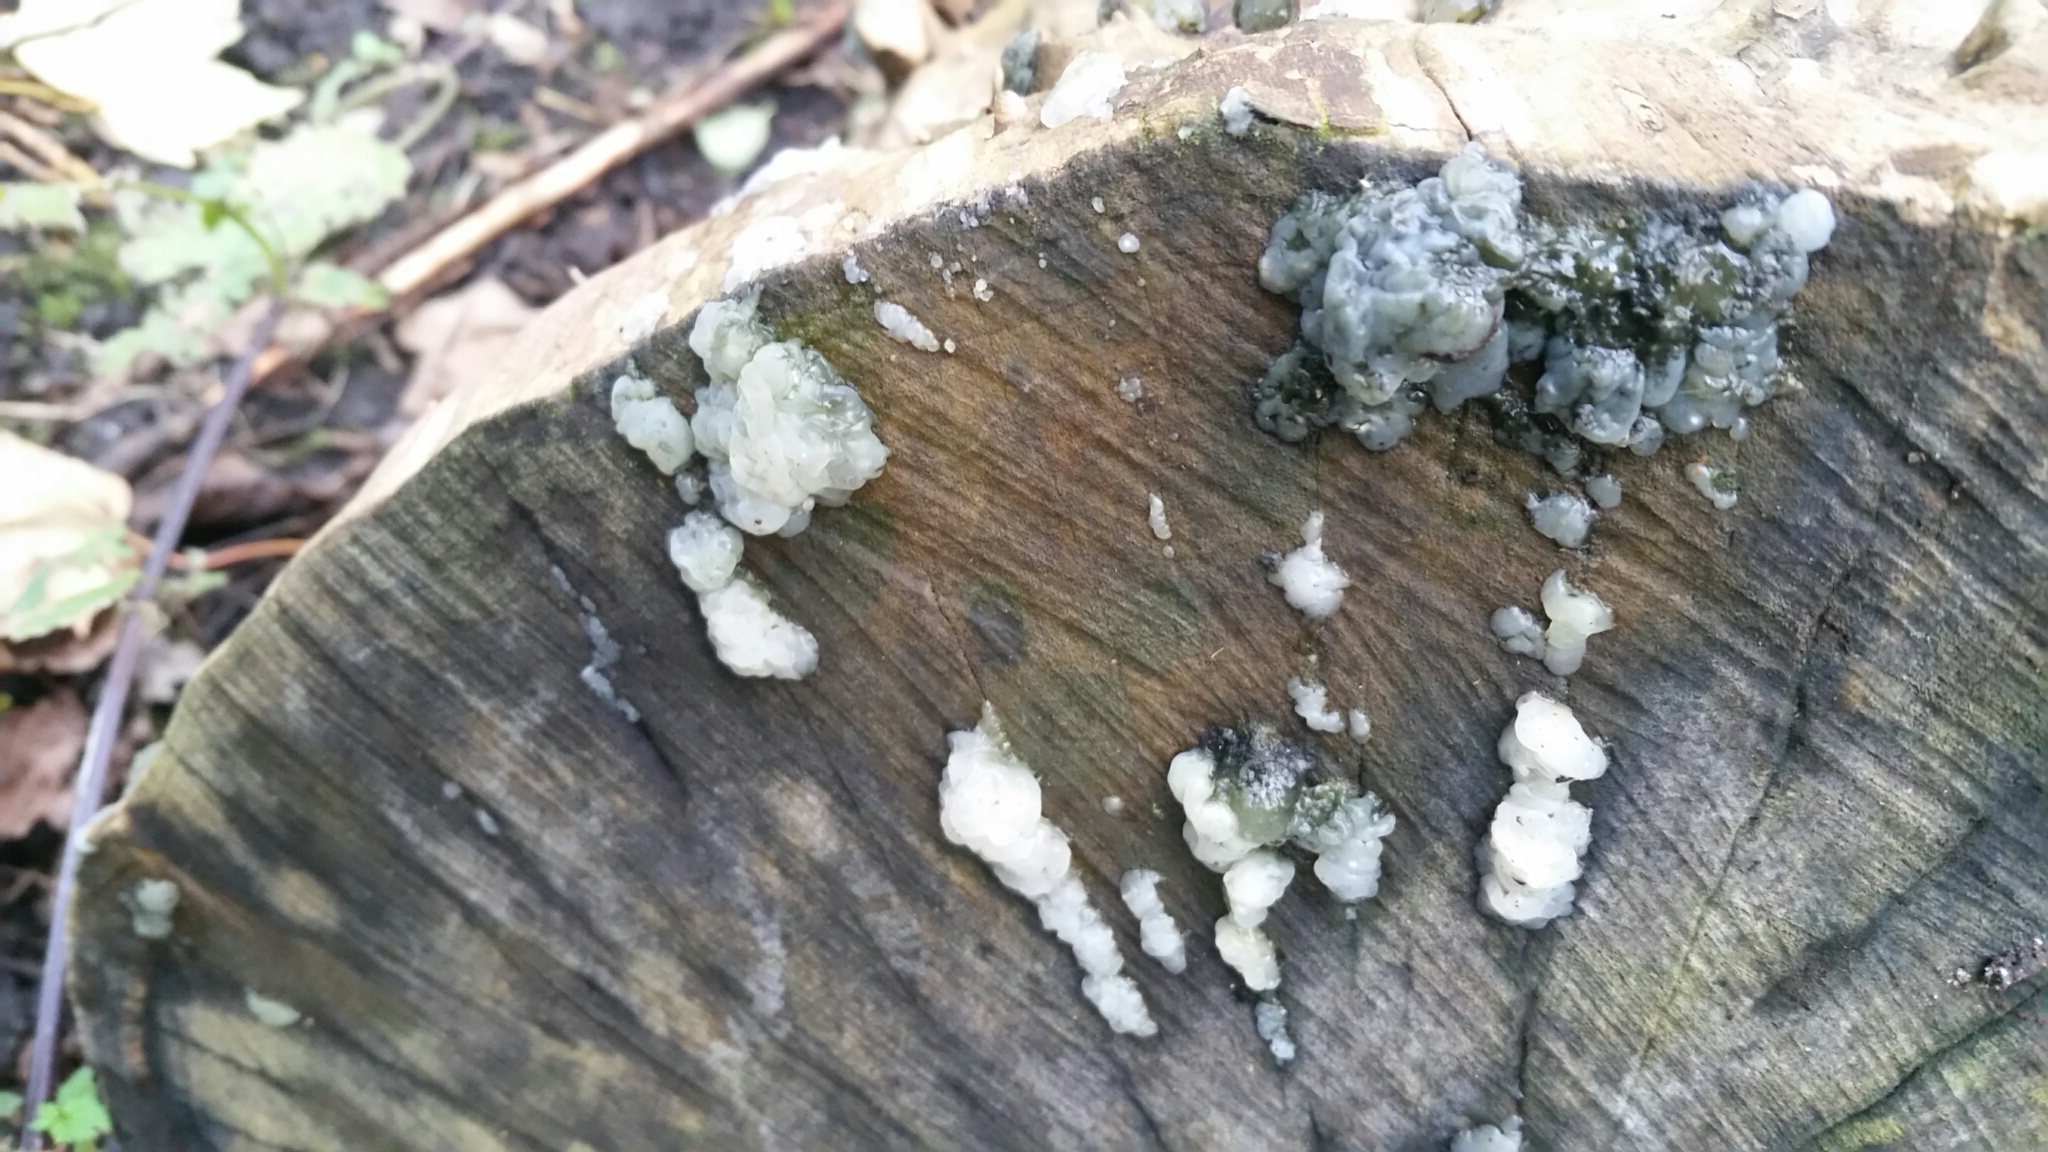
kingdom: Fungi
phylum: Basidiomycota
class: Agaricomycetes
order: Auriculariales
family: Hyaloriaceae
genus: Myxarium
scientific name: Myxarium nucleatum
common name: Crystal brain fungus
